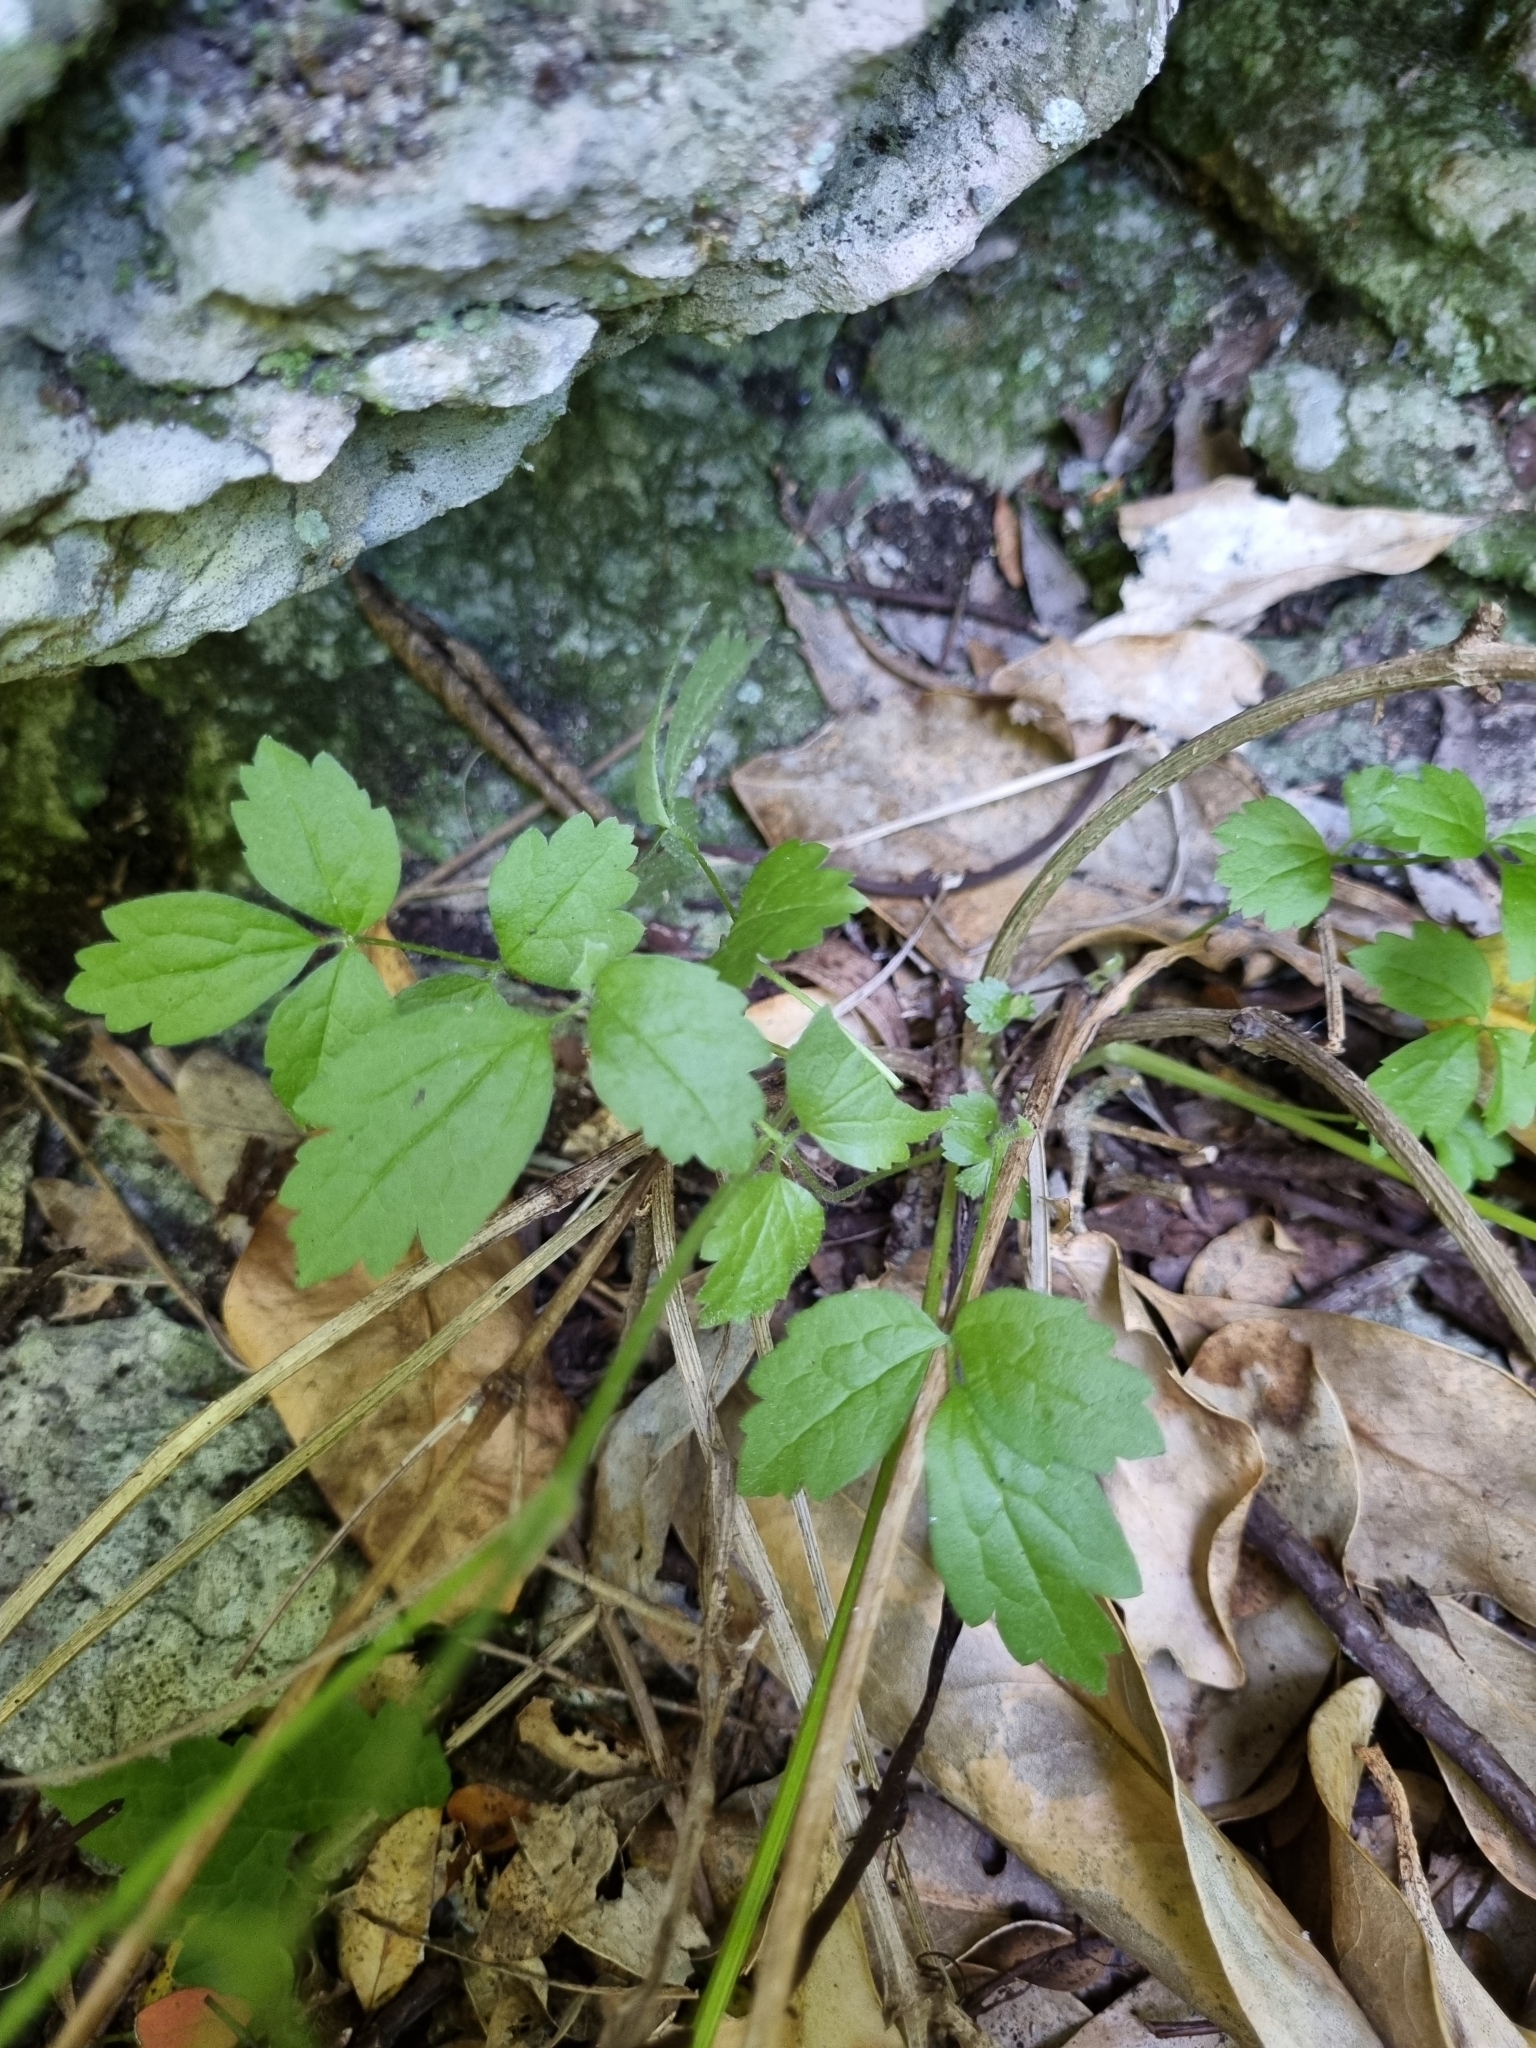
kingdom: Plantae
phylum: Tracheophyta
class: Magnoliopsida
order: Ranunculales
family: Ranunculaceae
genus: Clematis
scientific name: Clematis vitalba
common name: Evergreen clematis
